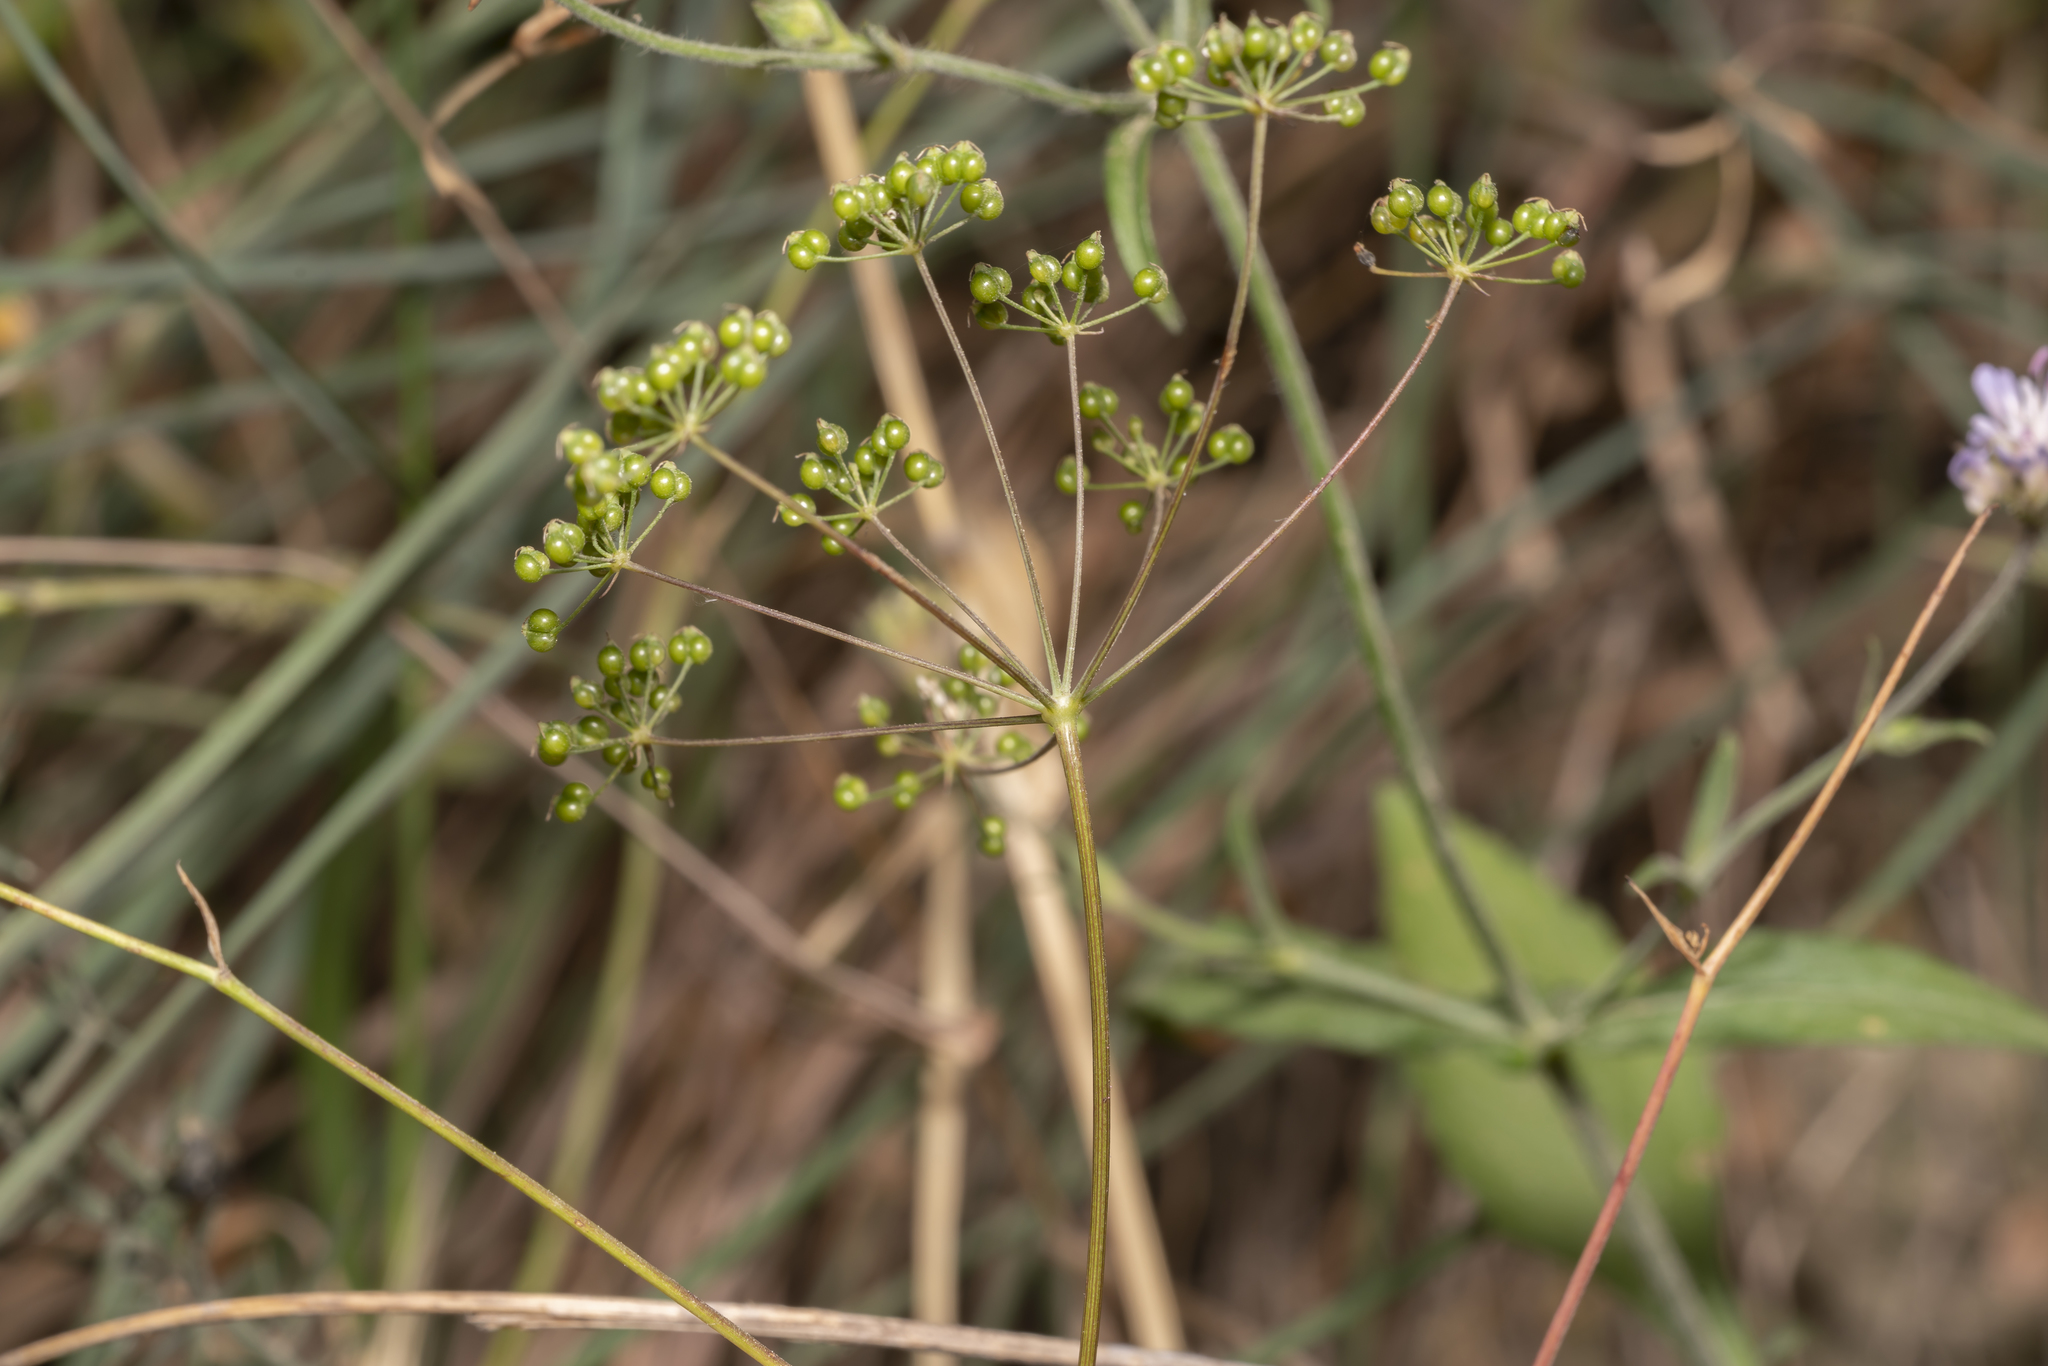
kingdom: Plantae
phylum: Tracheophyta
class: Magnoliopsida
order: Apiales
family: Apiaceae
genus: Scaligeria
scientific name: Scaligeria napiformis
